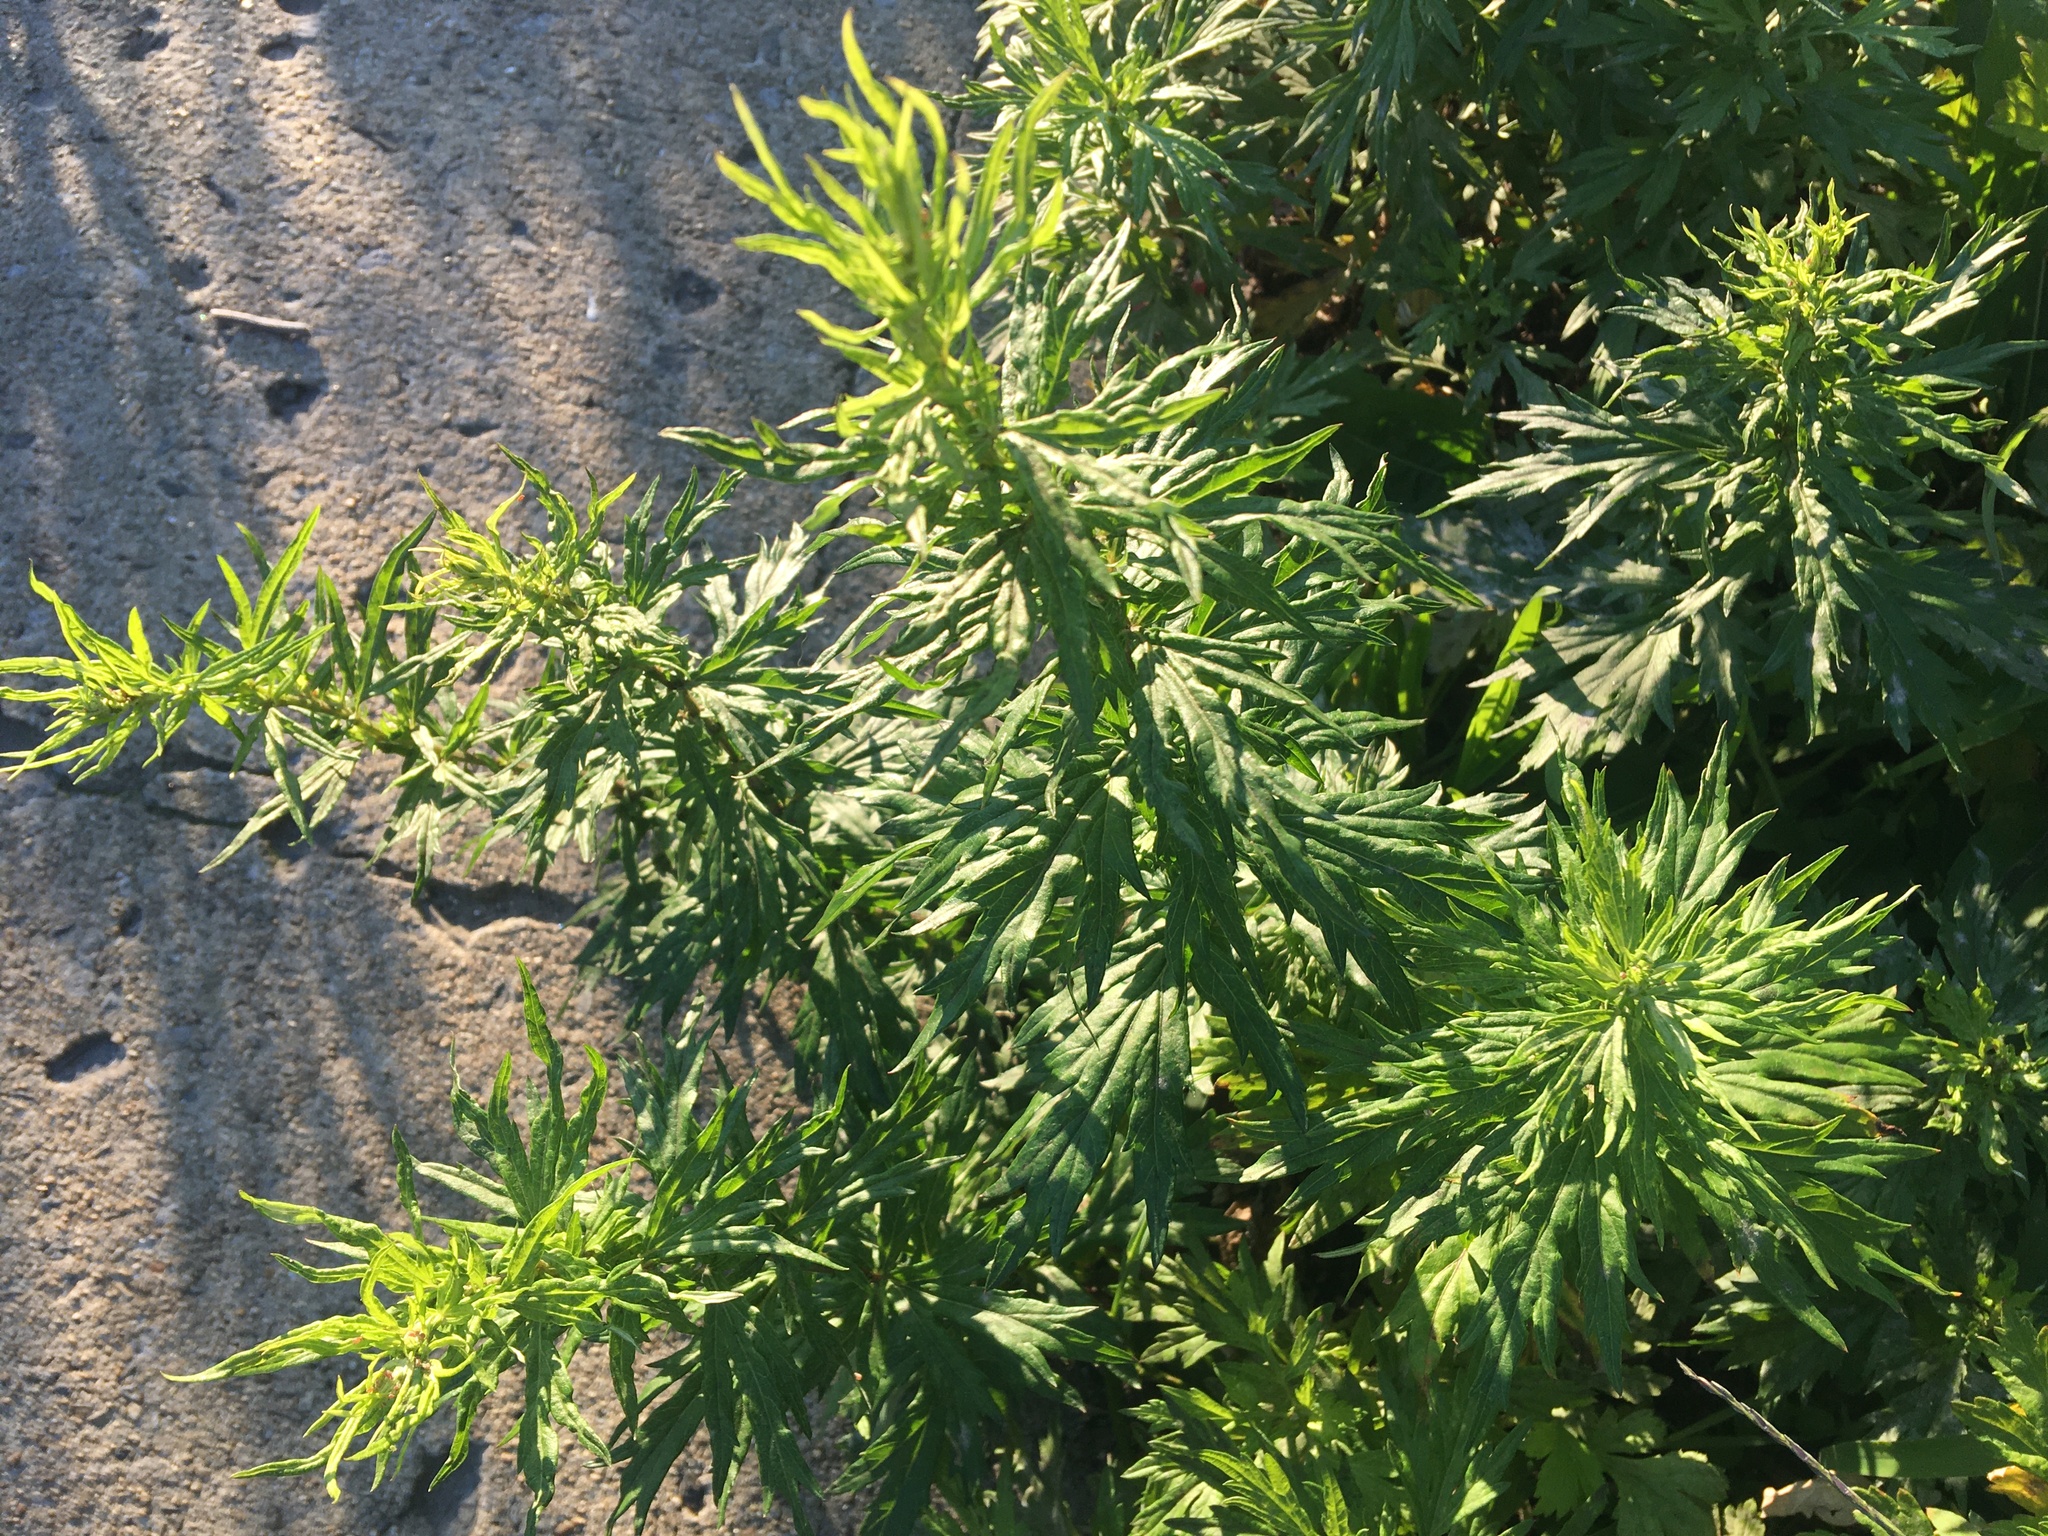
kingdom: Plantae
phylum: Tracheophyta
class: Magnoliopsida
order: Asterales
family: Asteraceae
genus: Artemisia
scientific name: Artemisia vulgaris
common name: Mugwort
